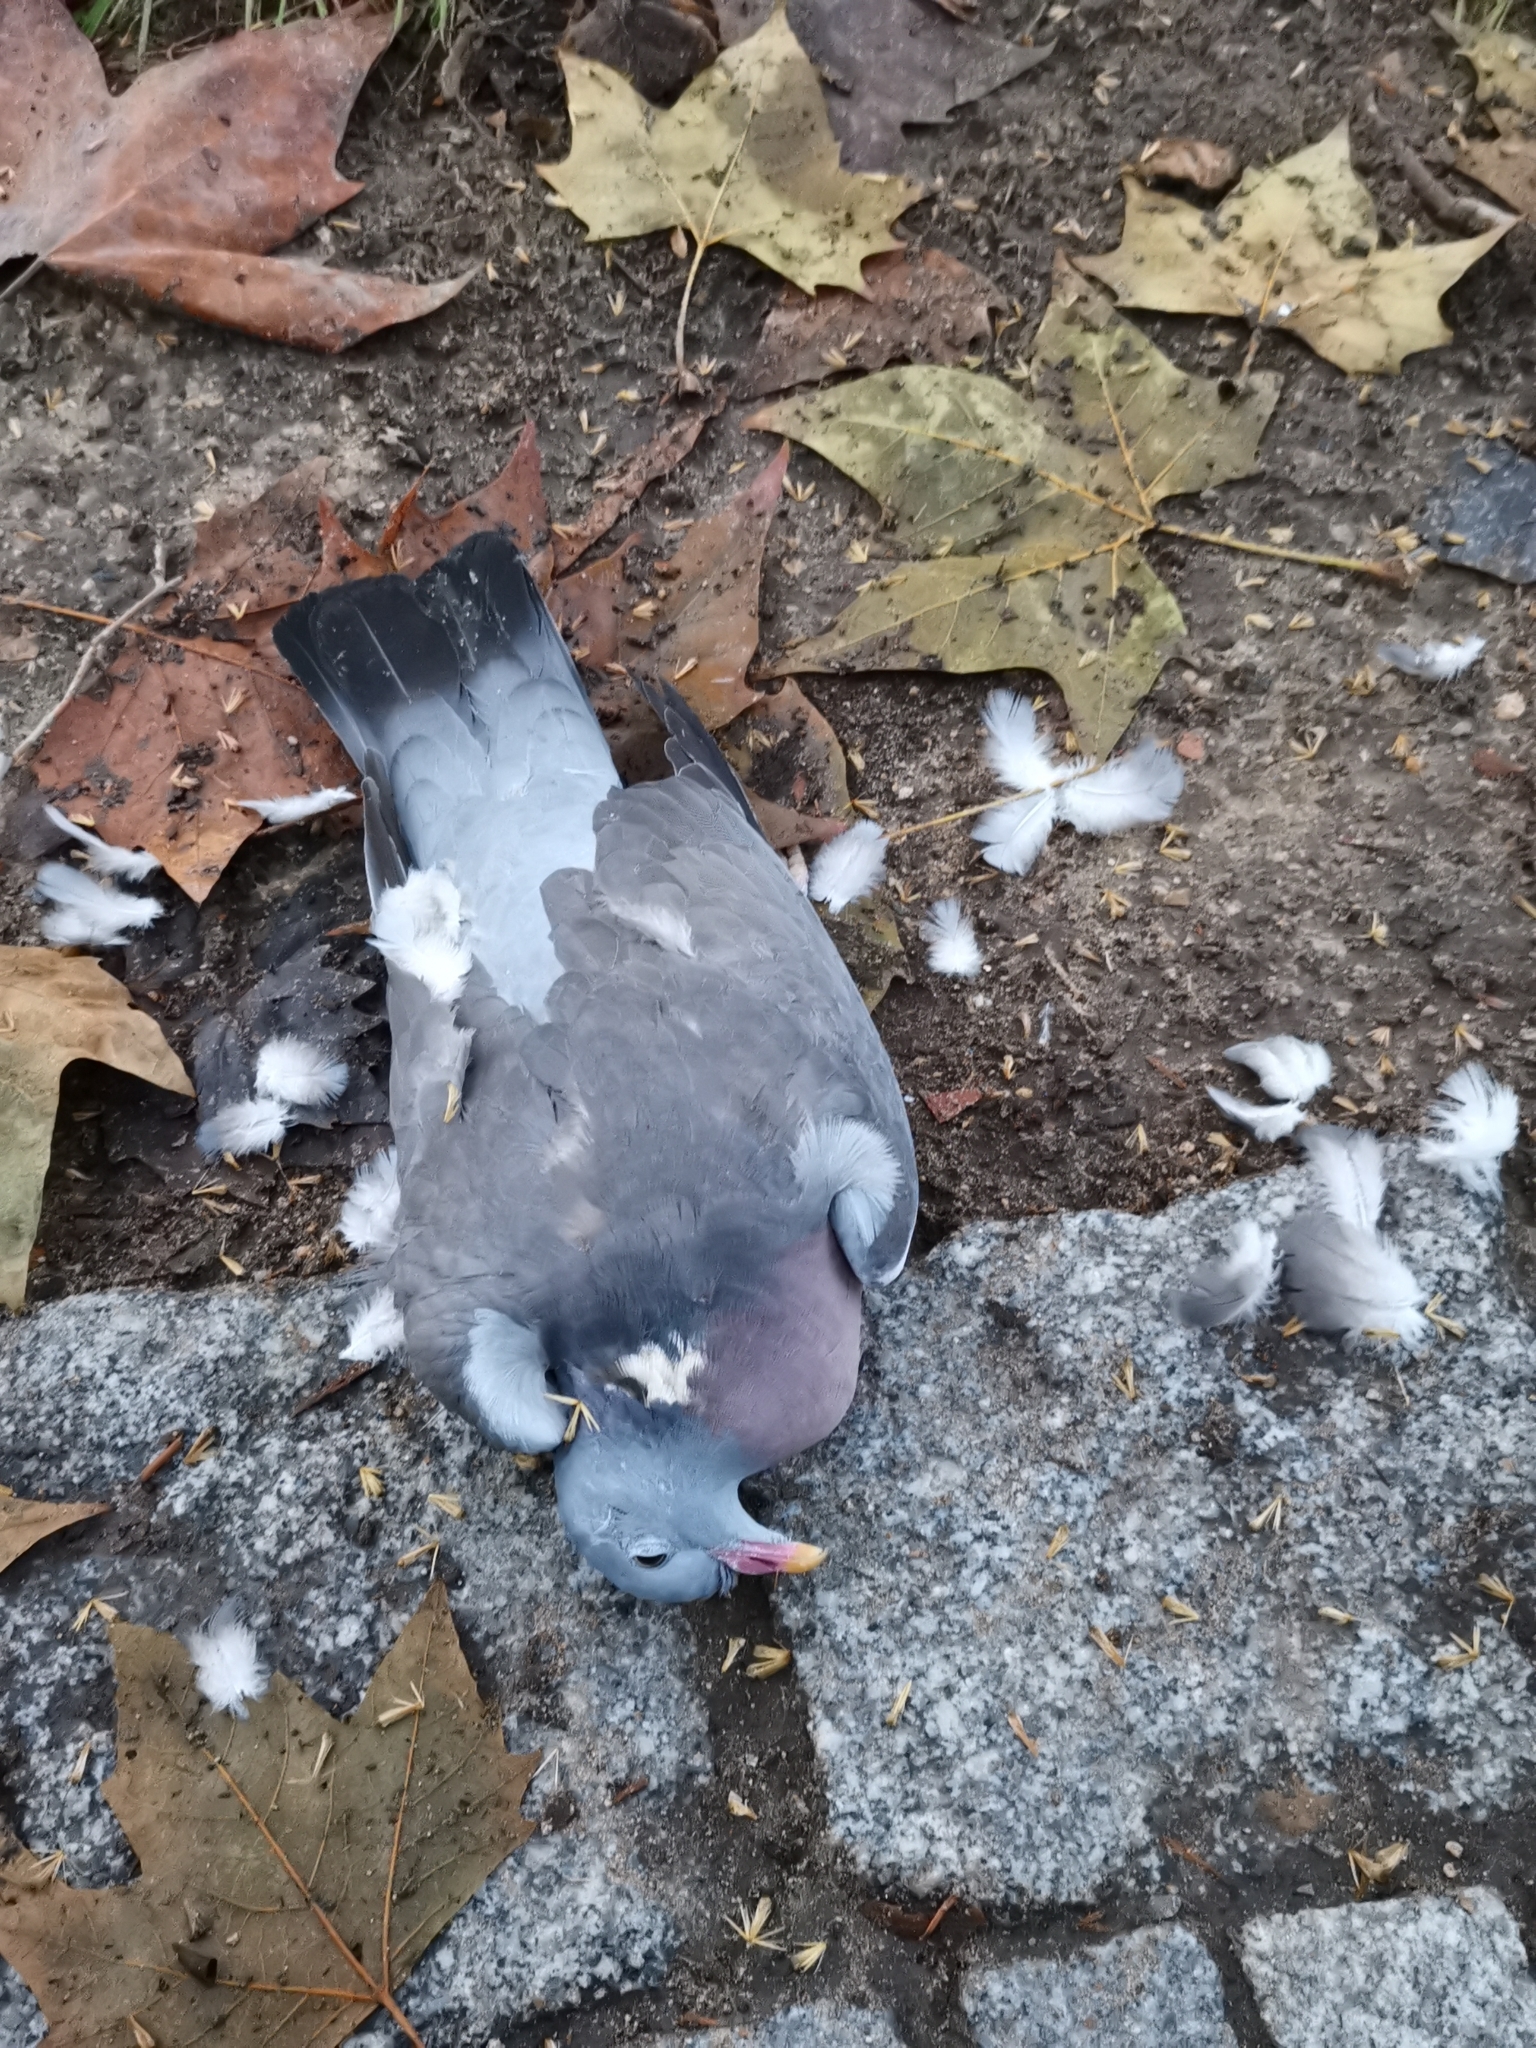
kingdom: Animalia
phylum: Chordata
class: Aves
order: Columbiformes
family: Columbidae
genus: Columba
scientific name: Columba palumbus
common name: Common wood pigeon
